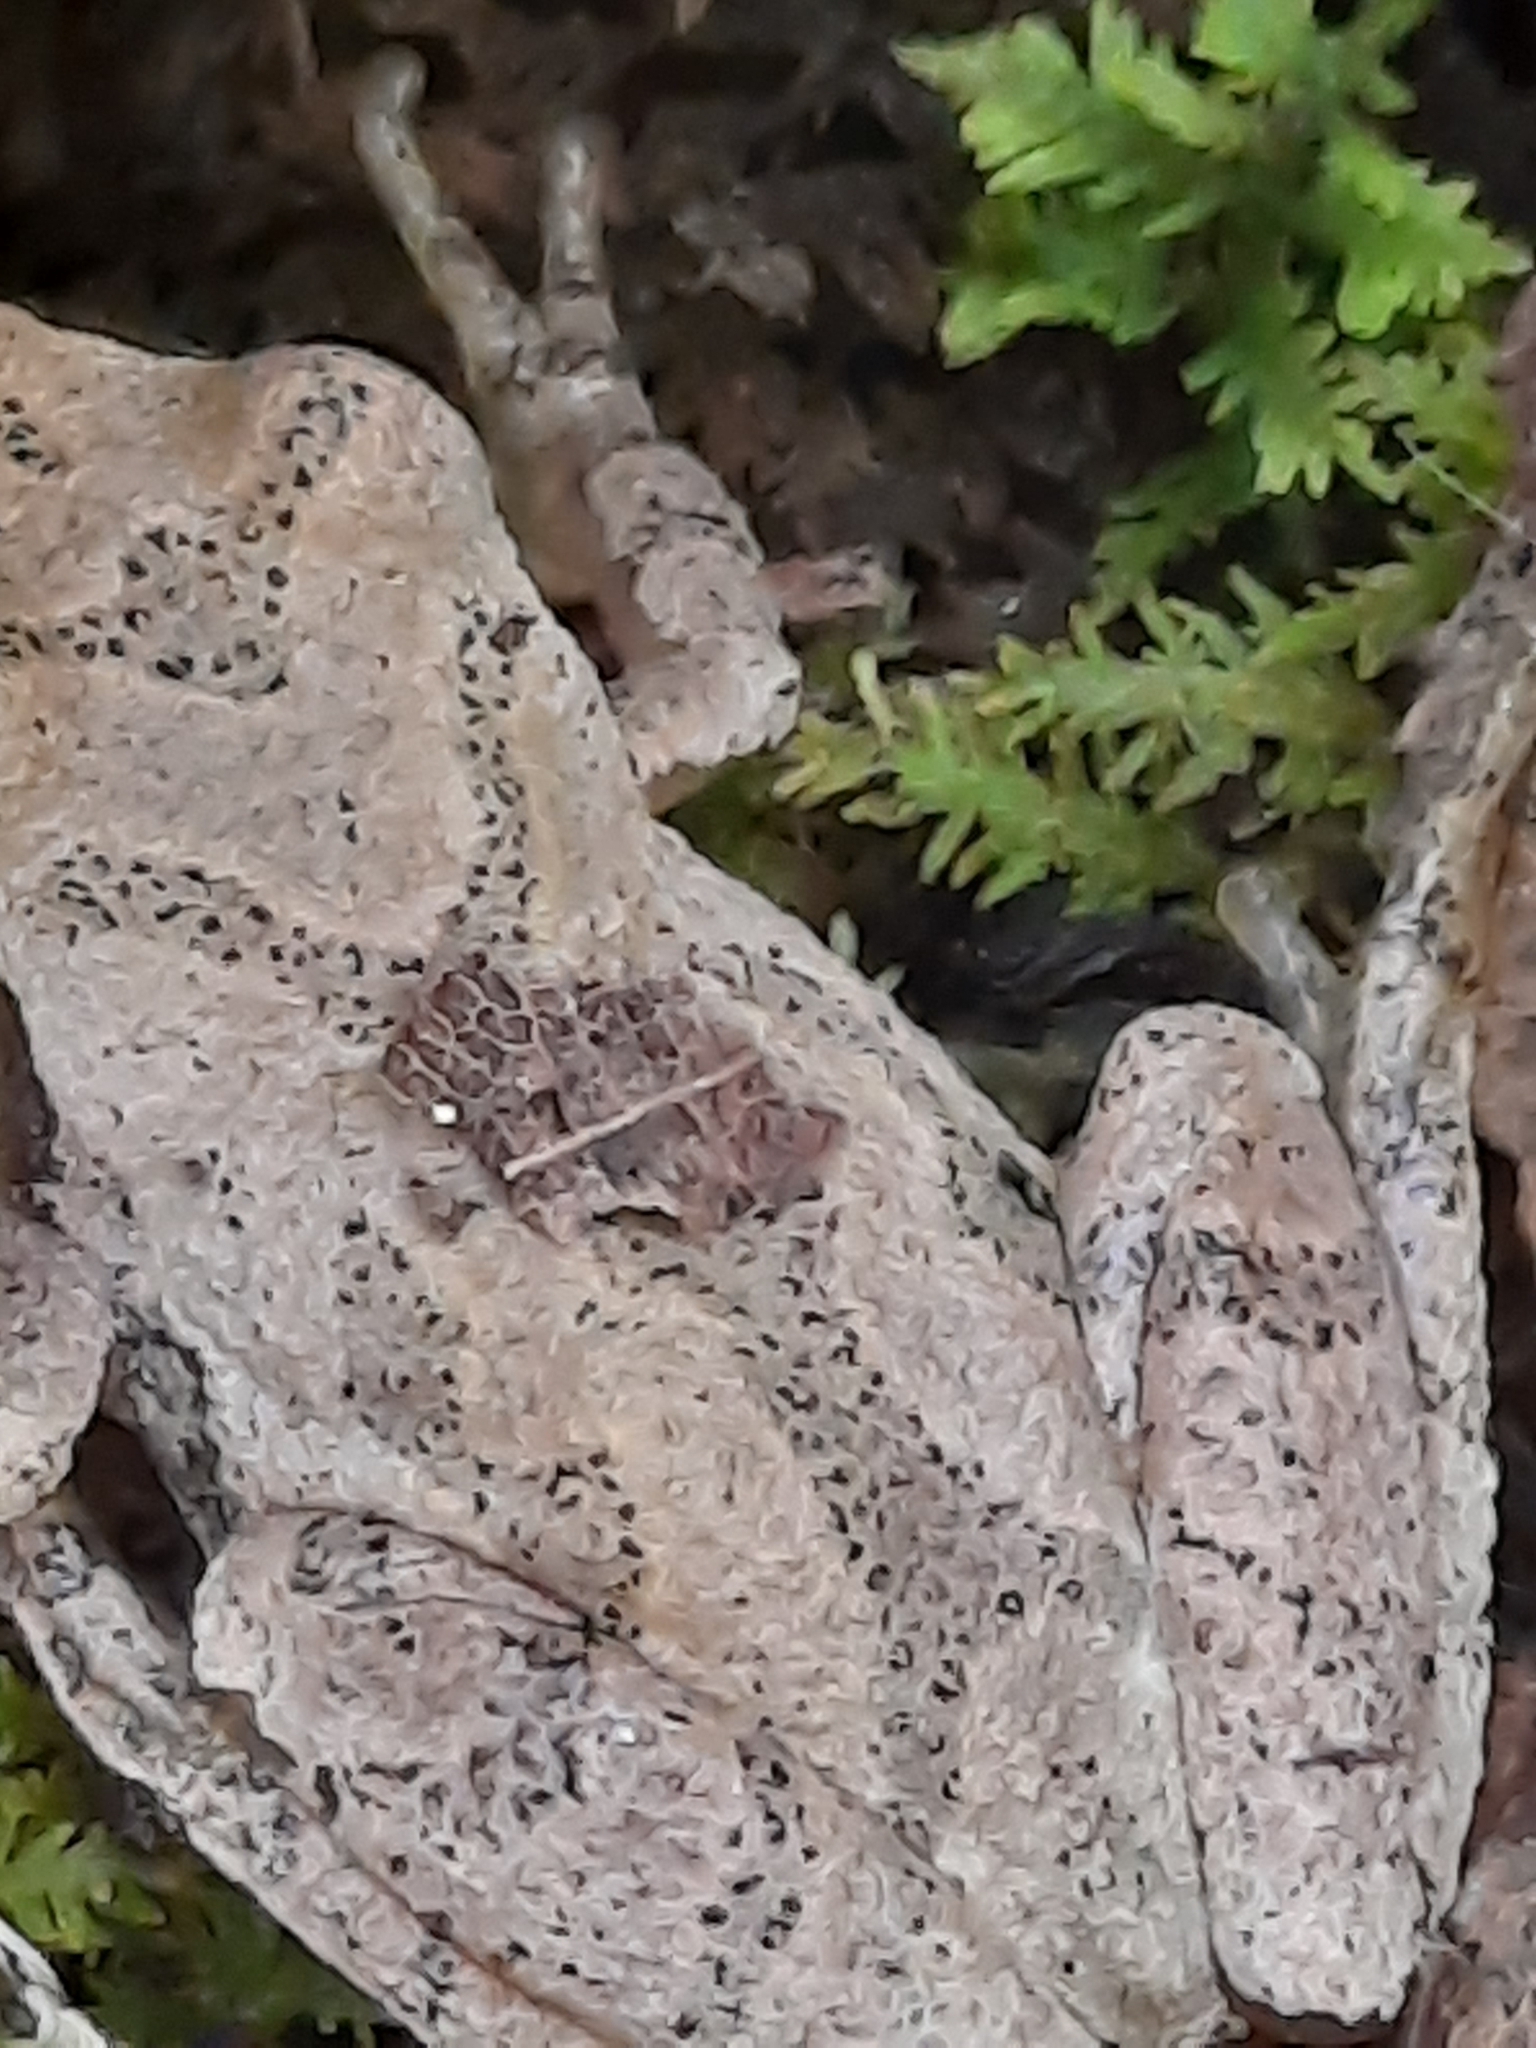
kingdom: Animalia
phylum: Chordata
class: Amphibia
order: Anura
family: Hylidae
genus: Pseudacris
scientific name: Pseudacris crucifer
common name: Spring peeper
